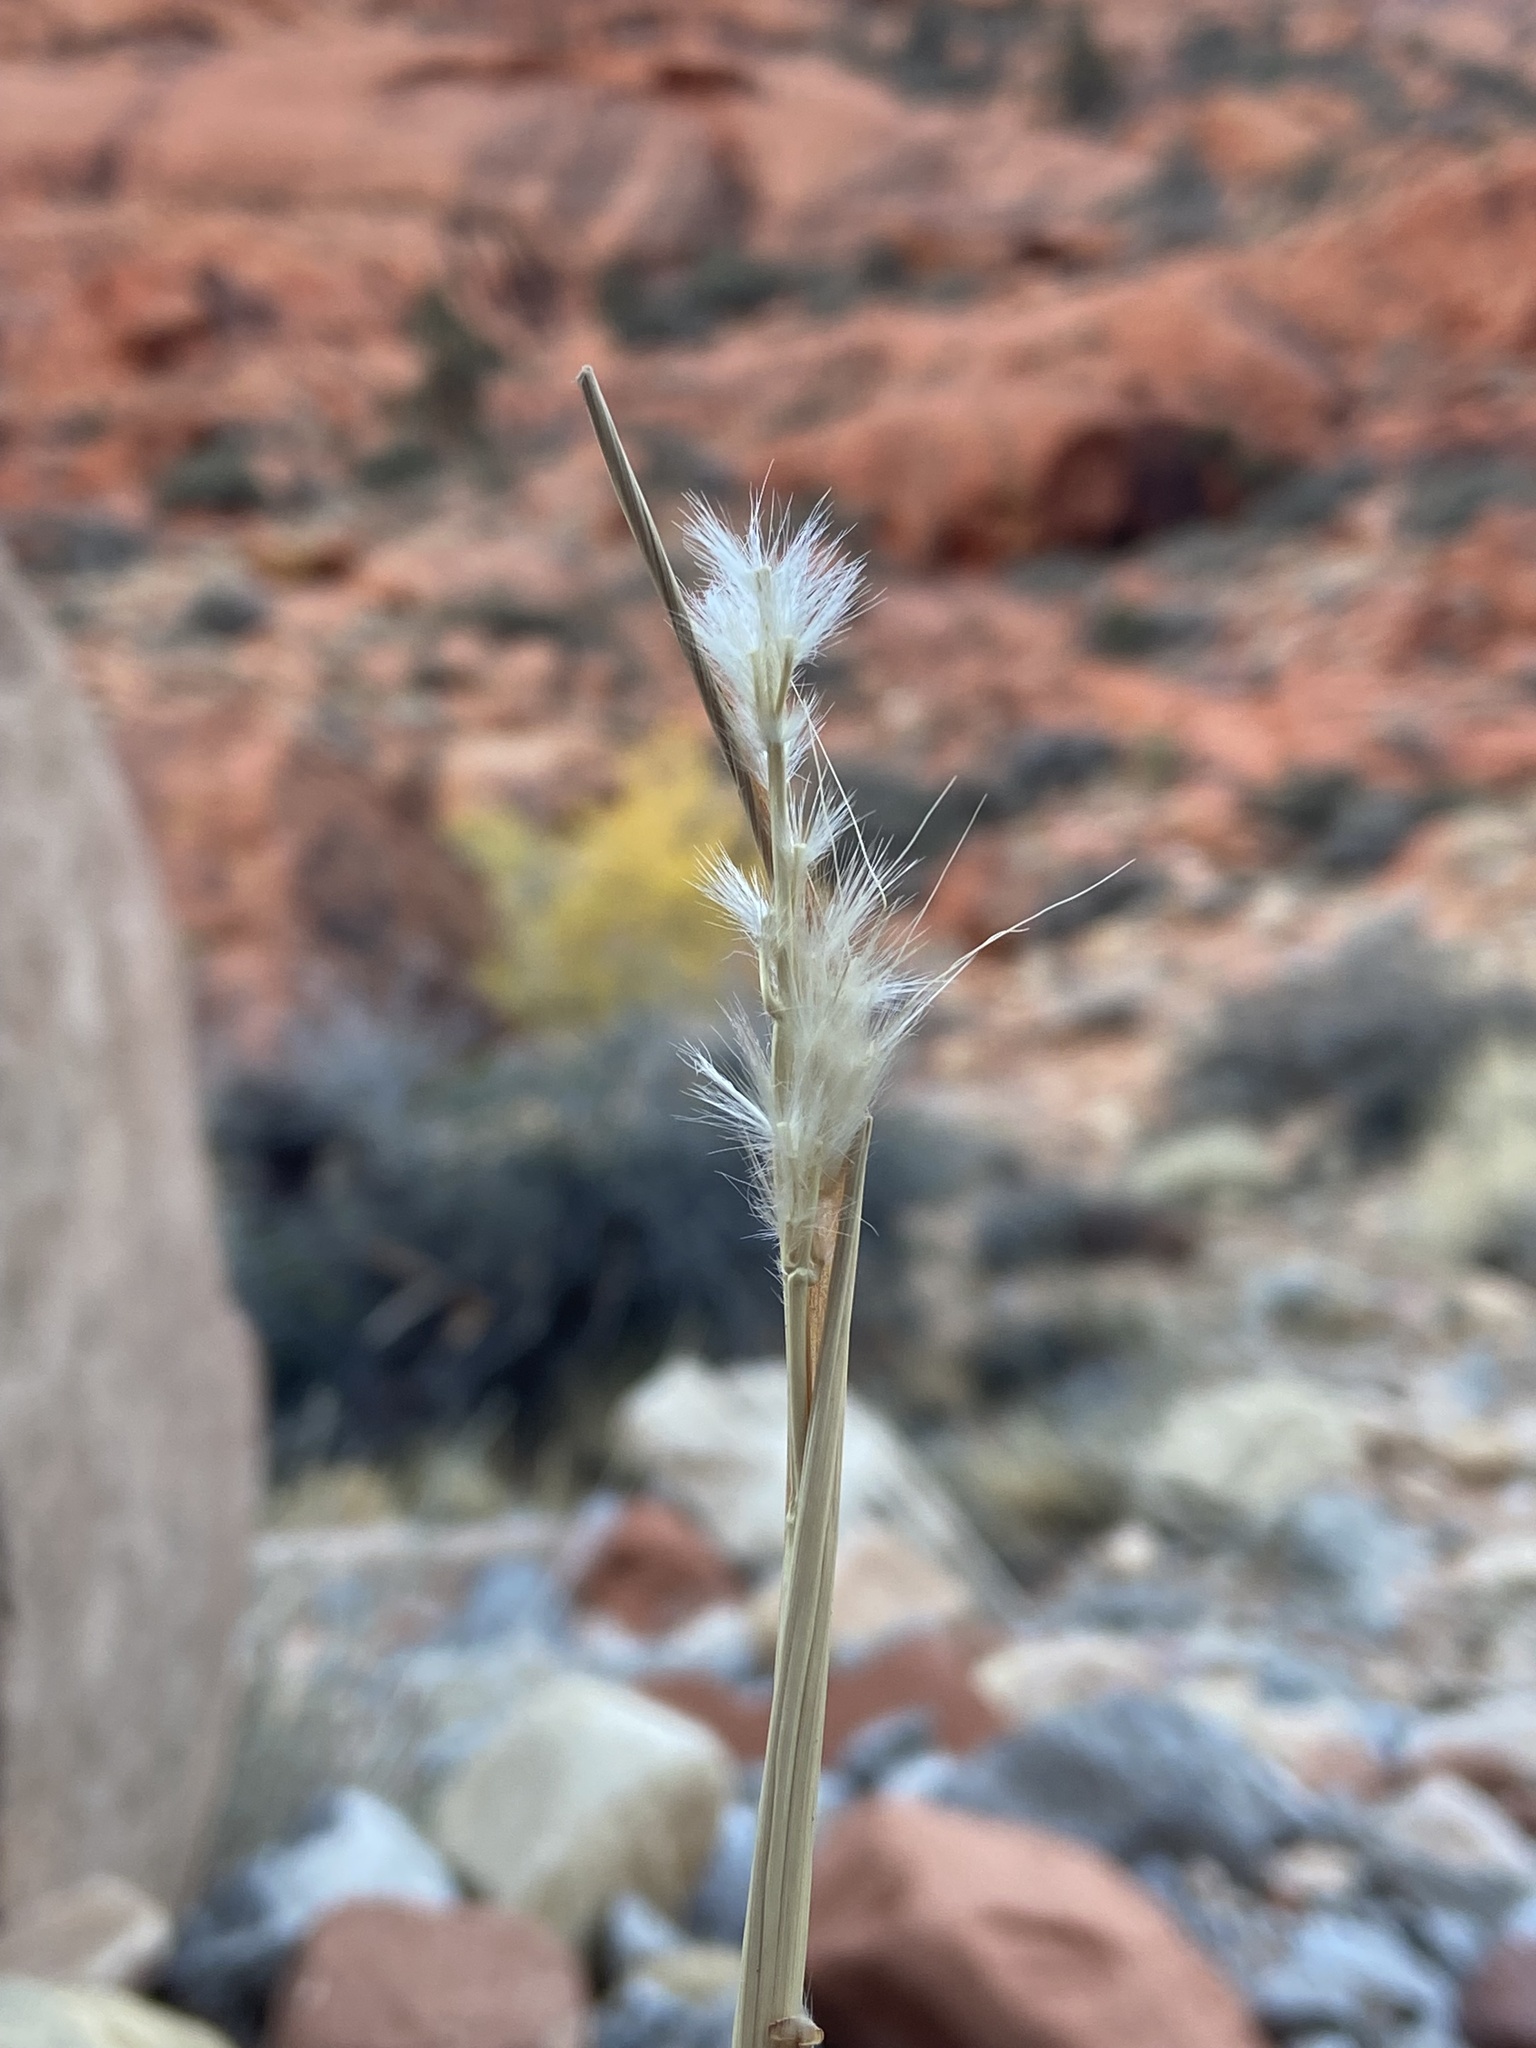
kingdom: Plantae
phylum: Tracheophyta
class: Liliopsida
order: Poales
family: Poaceae
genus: Bothriochloa
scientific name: Bothriochloa barbinodis
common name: Cane bluestem
